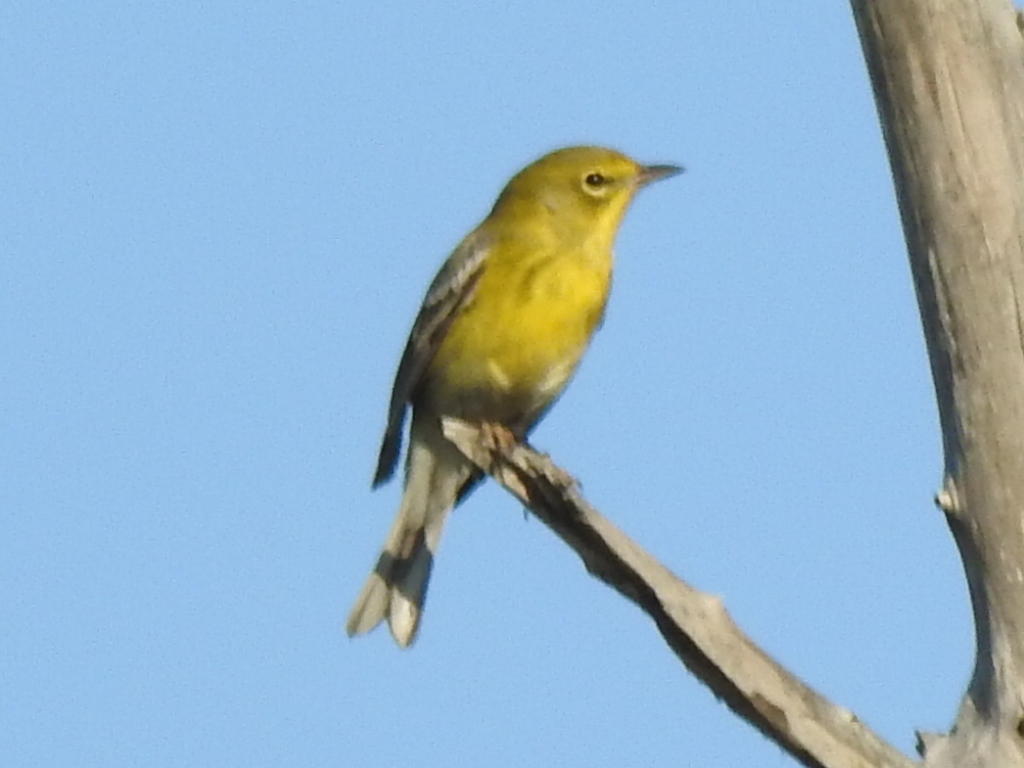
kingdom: Animalia
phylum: Chordata
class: Aves
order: Passeriformes
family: Parulidae
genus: Setophaga
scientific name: Setophaga pinus
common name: Pine warbler
